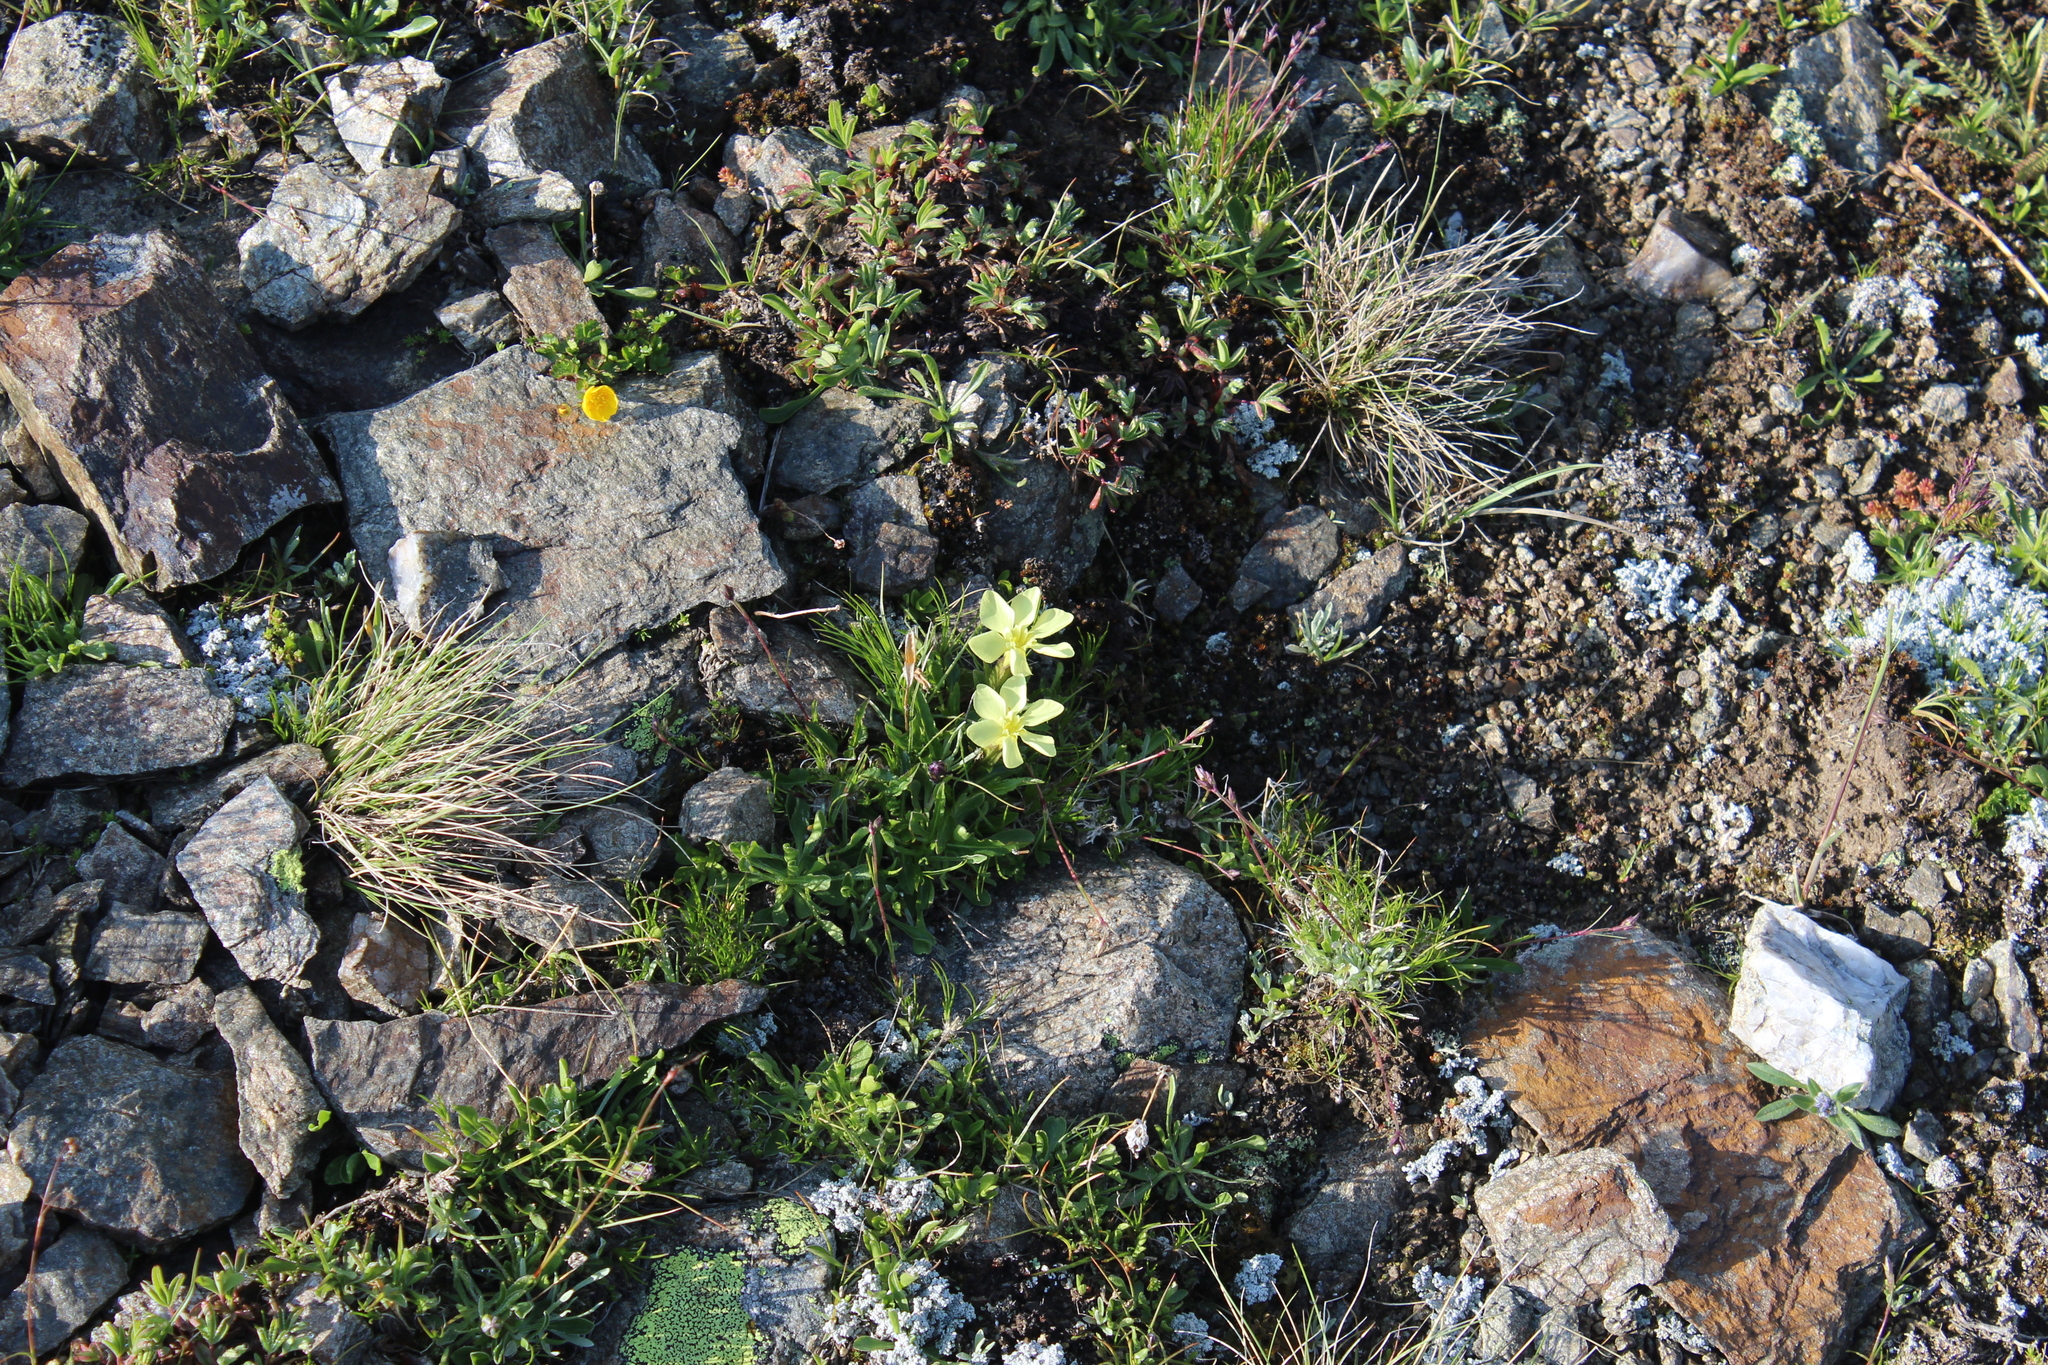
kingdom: Plantae
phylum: Tracheophyta
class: Magnoliopsida
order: Gentianales
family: Gentianaceae
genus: Gentiana
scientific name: Gentiana verna
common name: Spring gentian
